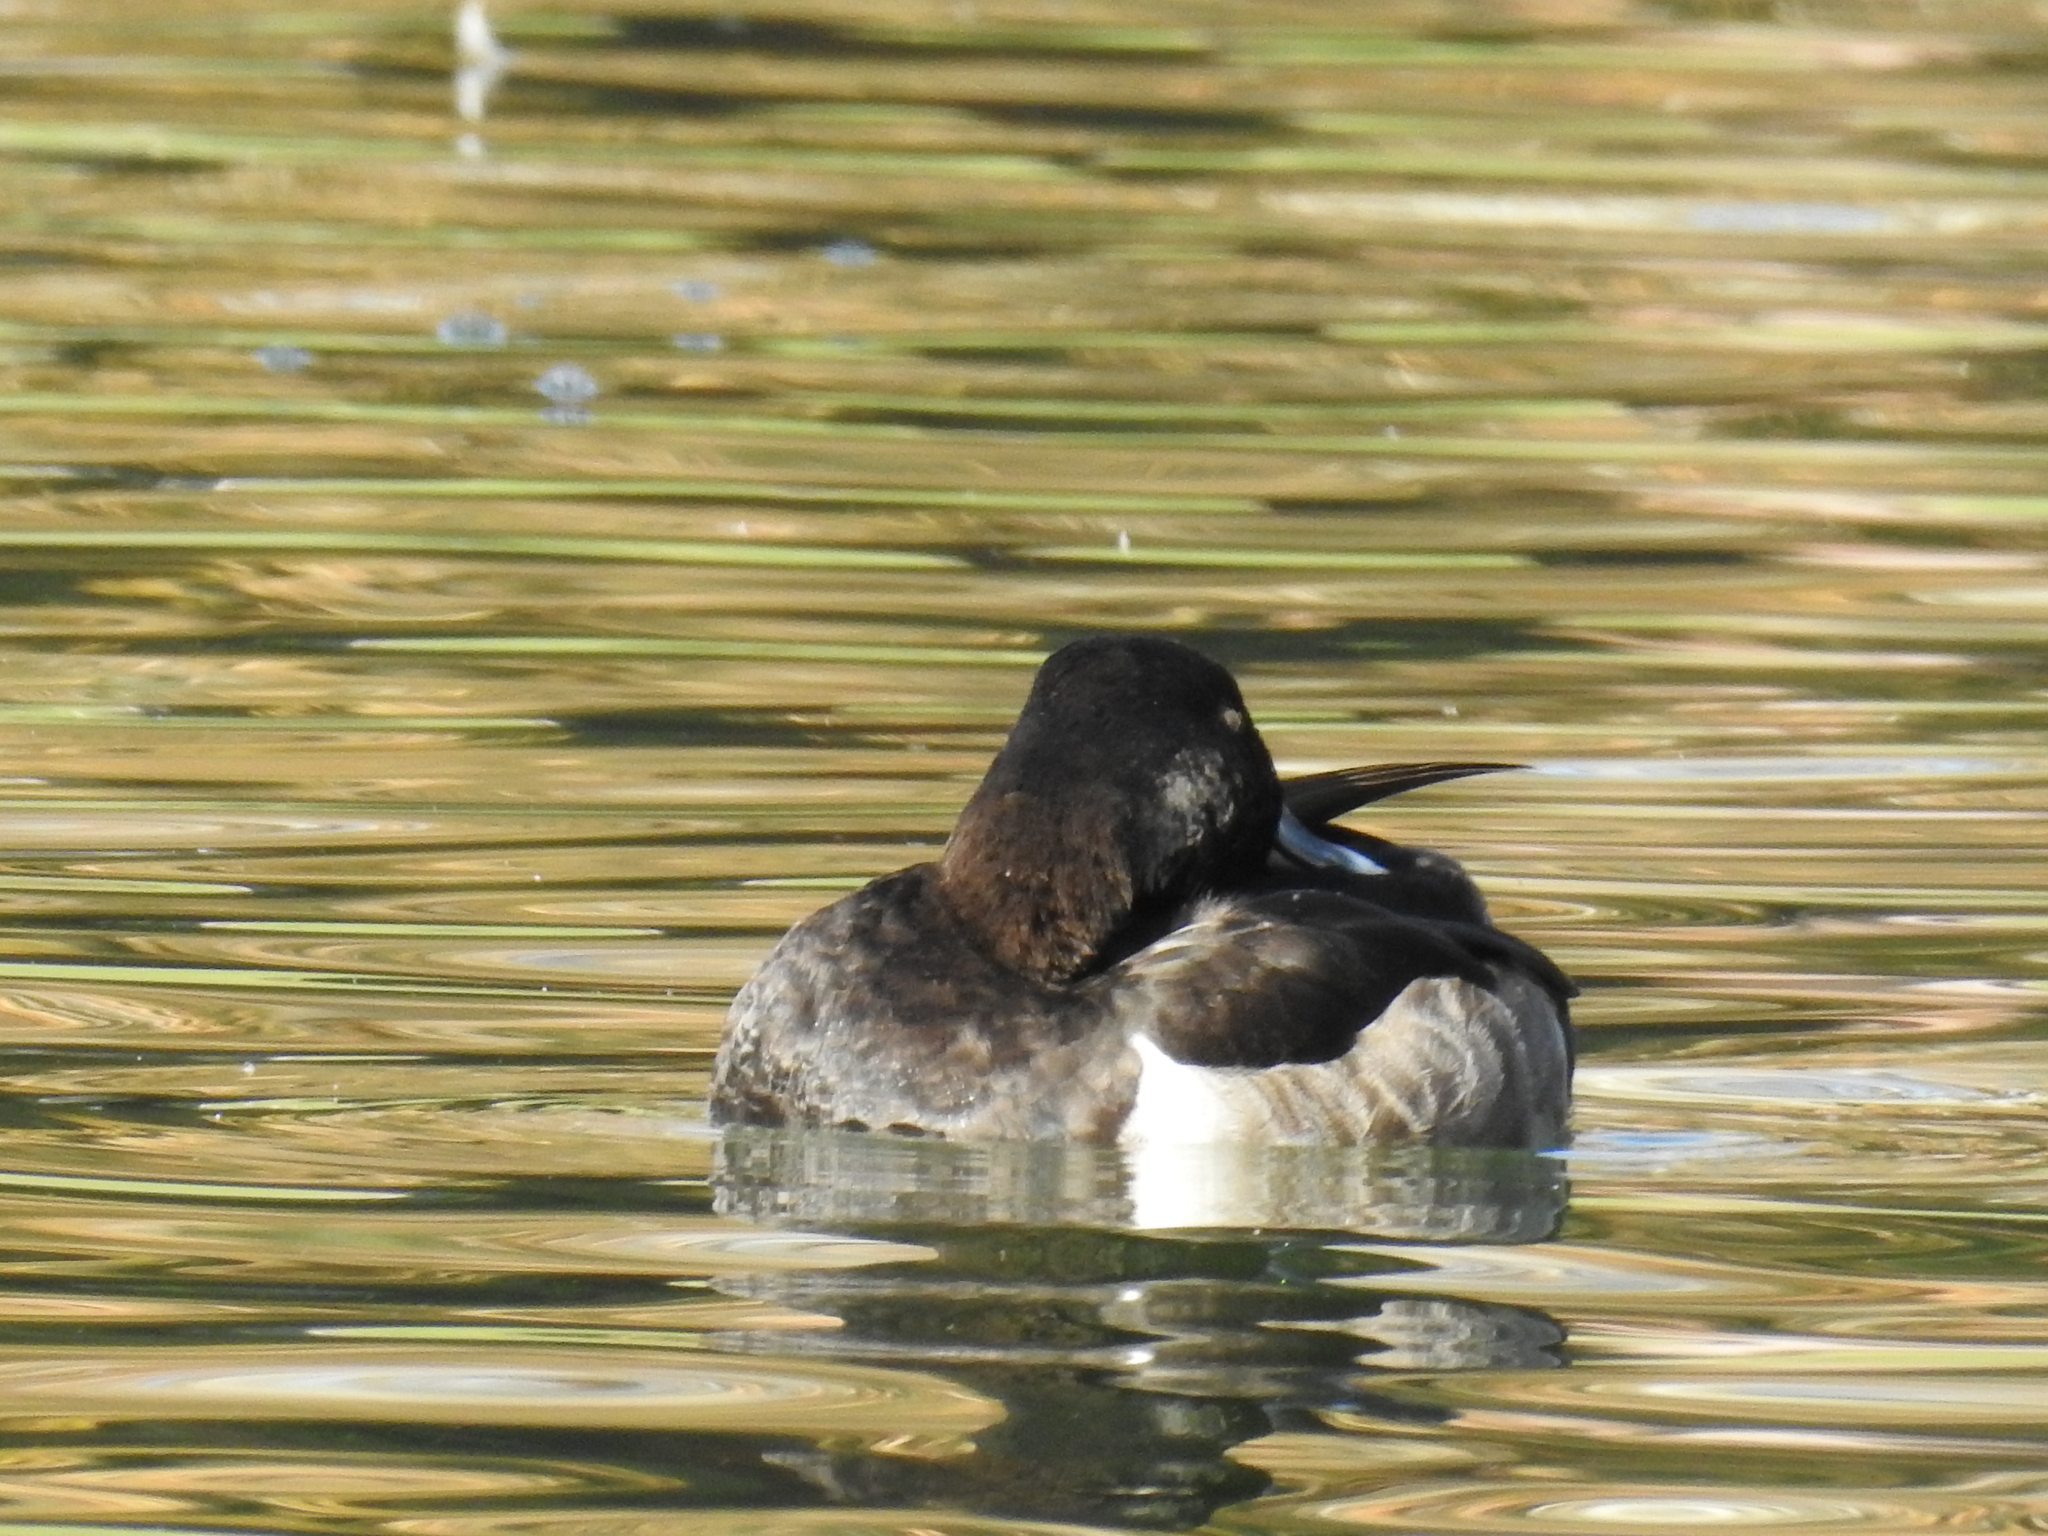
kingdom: Animalia
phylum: Chordata
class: Aves
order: Anseriformes
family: Anatidae
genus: Aythya
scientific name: Aythya collaris
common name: Ring-necked duck
